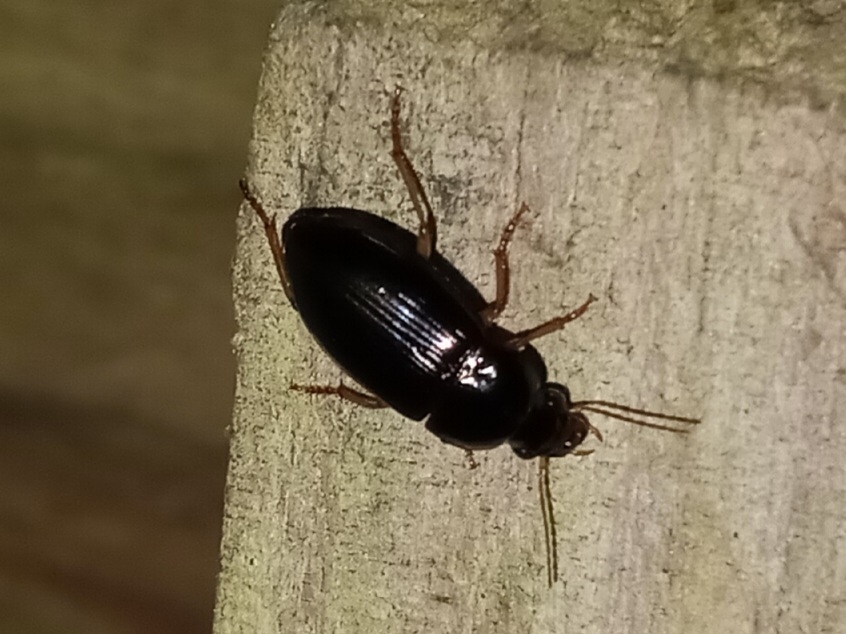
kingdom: Animalia
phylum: Arthropoda
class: Insecta
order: Coleoptera
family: Carabidae
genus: Notiobia
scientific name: Notiobia terminata
